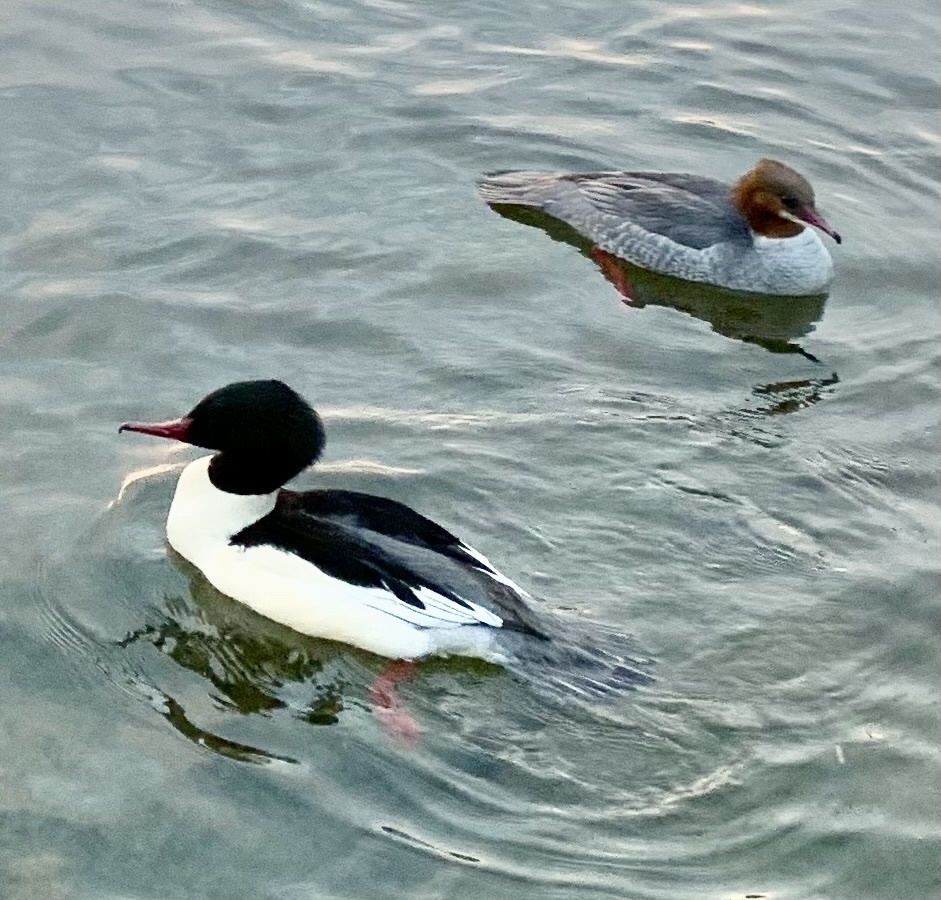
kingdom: Animalia
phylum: Chordata
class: Aves
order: Anseriformes
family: Anatidae
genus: Mergus
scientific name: Mergus merganser
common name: Common merganser
